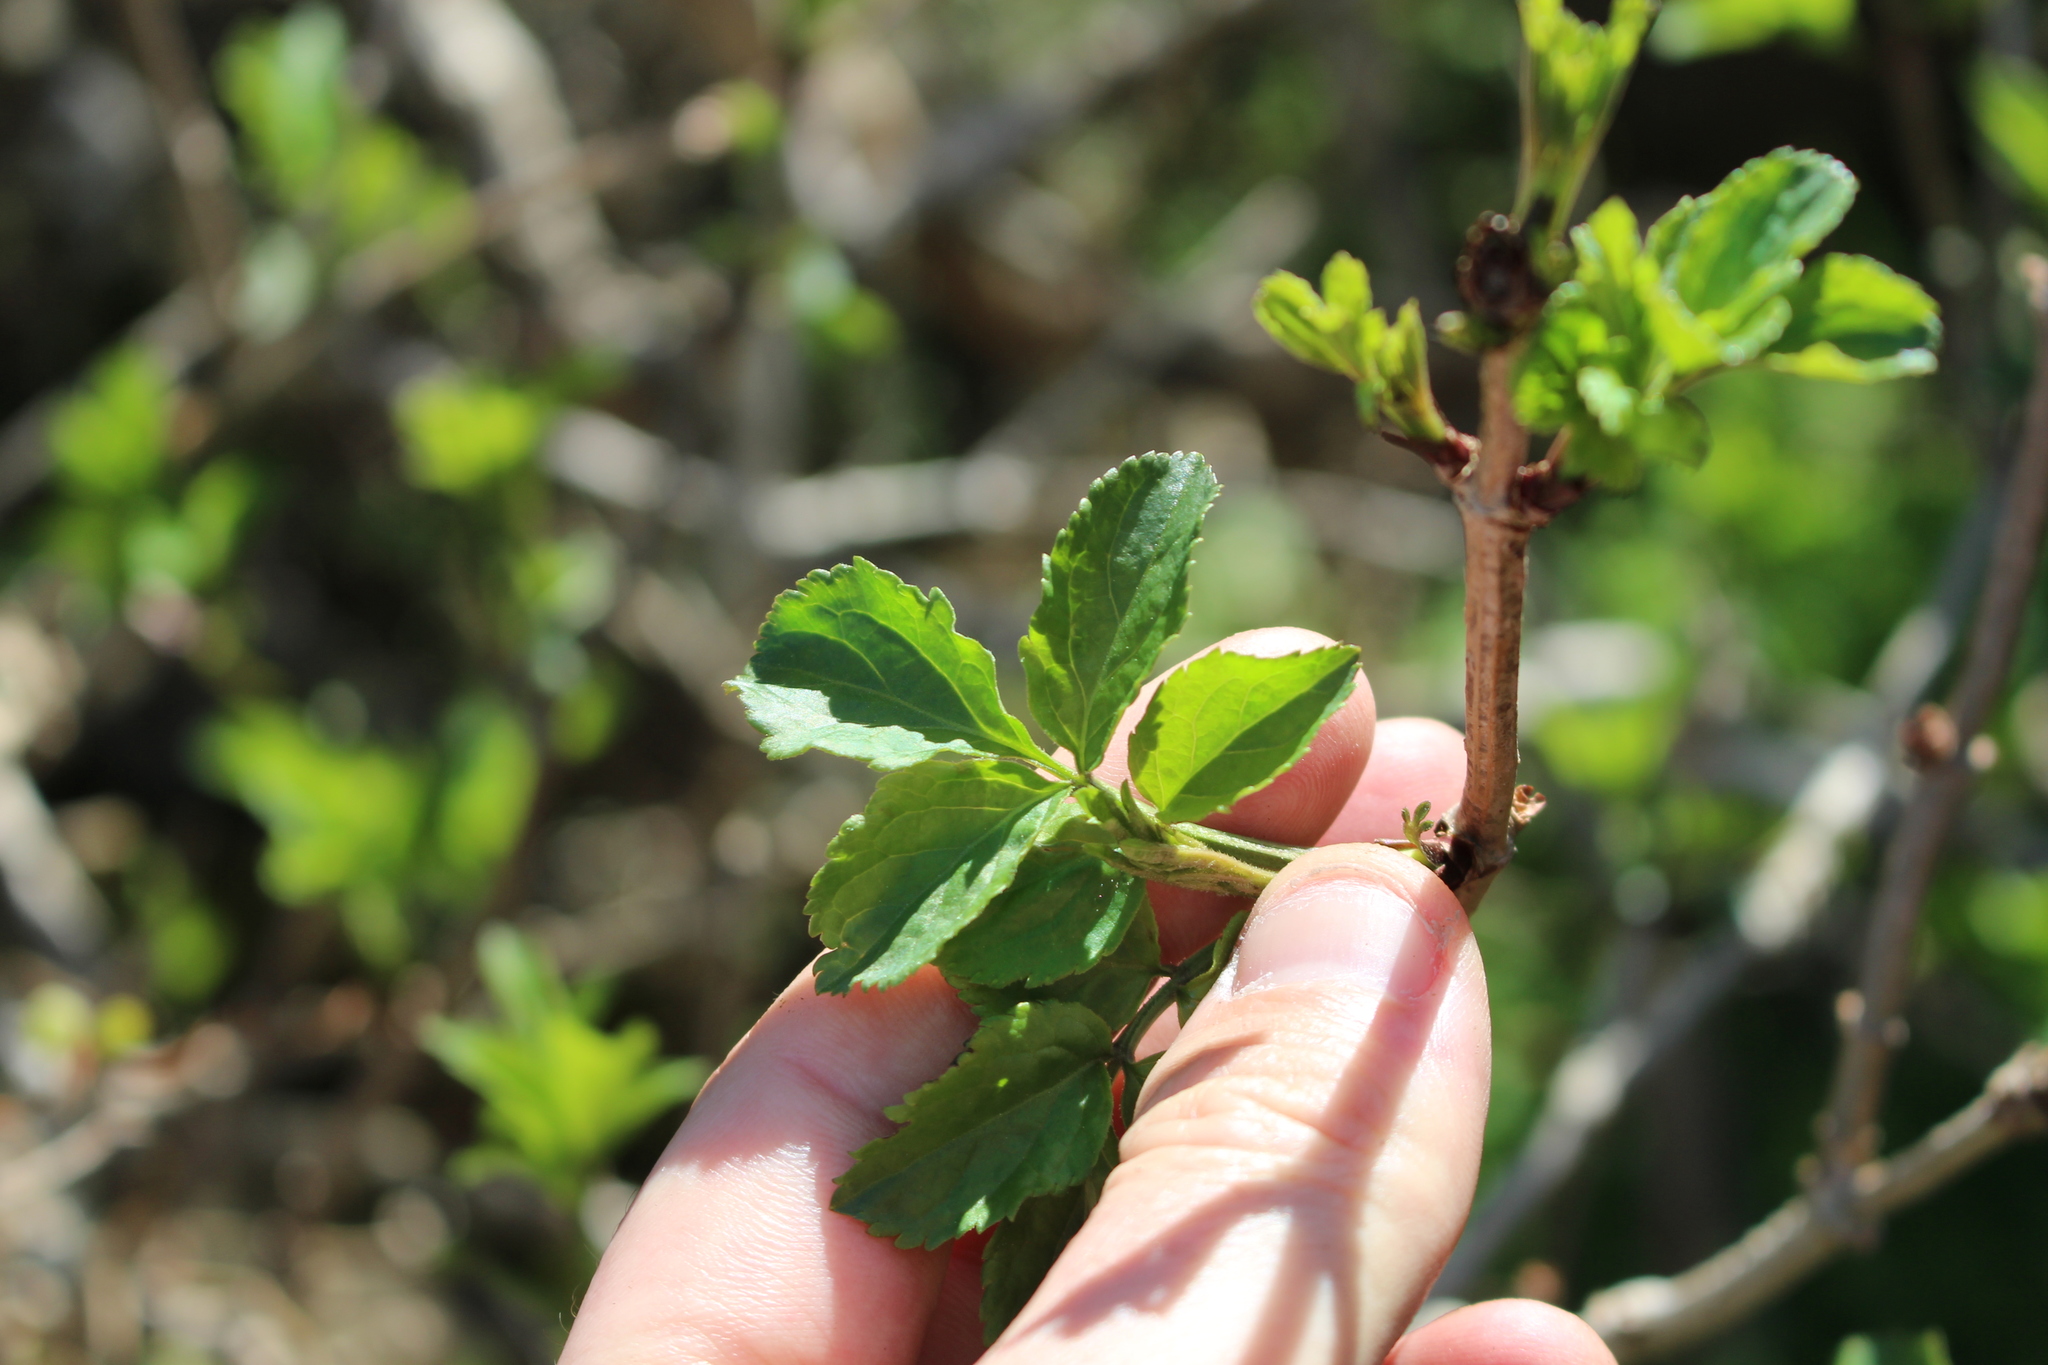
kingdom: Plantae
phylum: Tracheophyta
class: Magnoliopsida
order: Dipsacales
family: Viburnaceae
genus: Sambucus
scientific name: Sambucus nigra
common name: Elder
